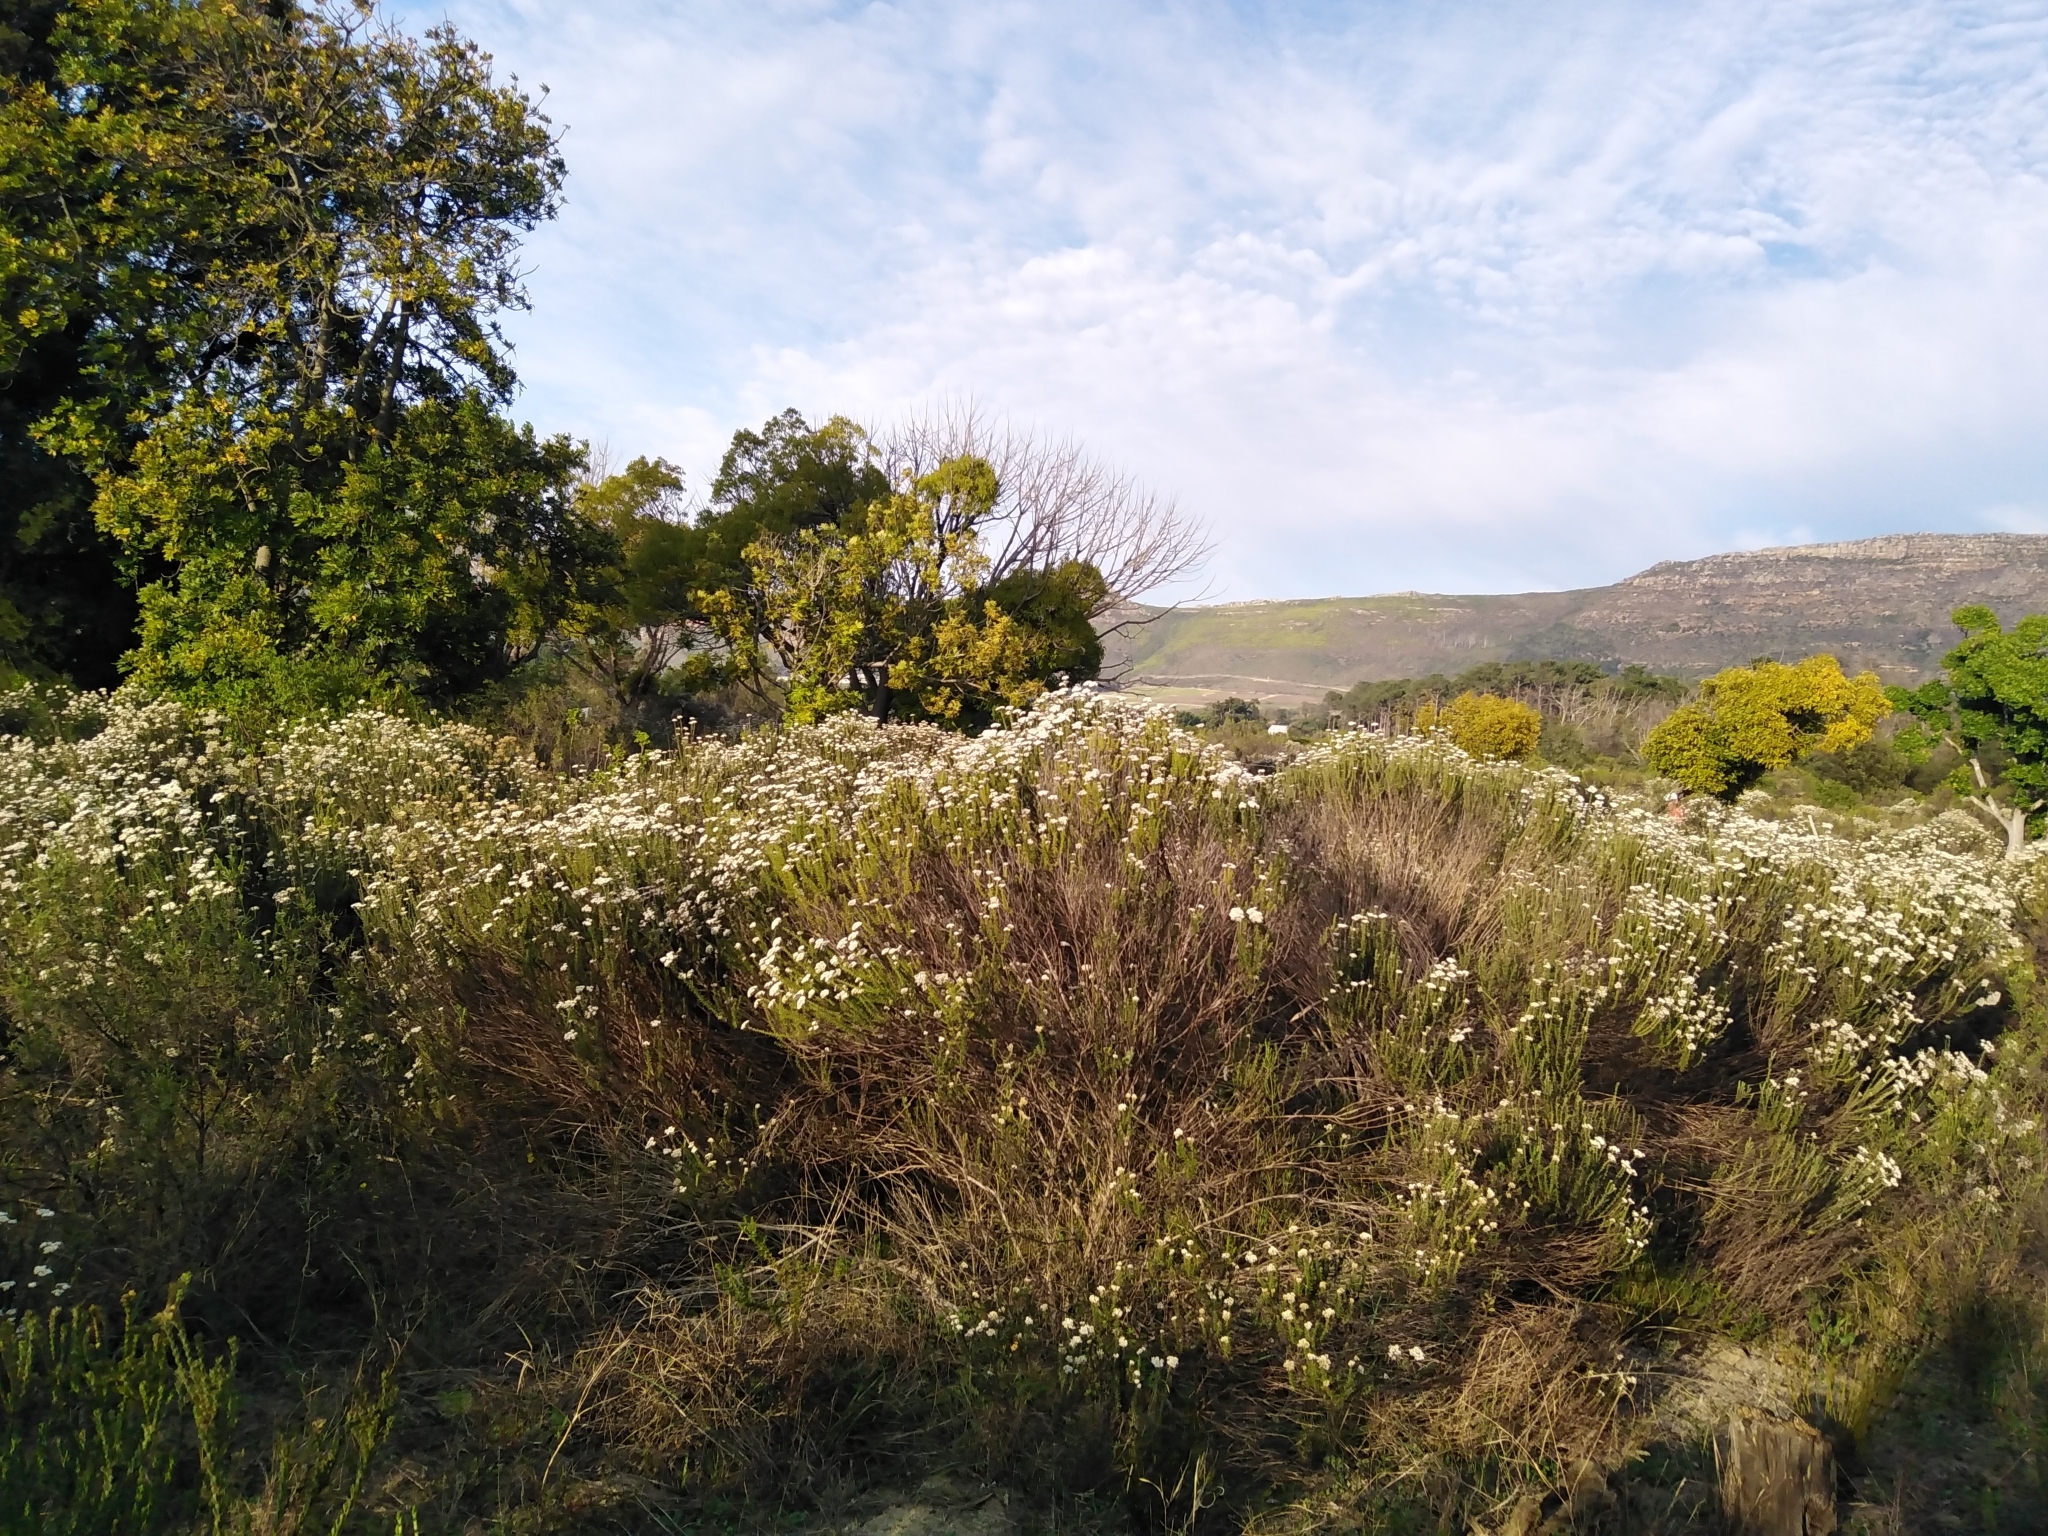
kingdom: Plantae
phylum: Tracheophyta
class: Magnoliopsida
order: Asterales
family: Asteraceae
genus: Metalasia
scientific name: Metalasia densa
